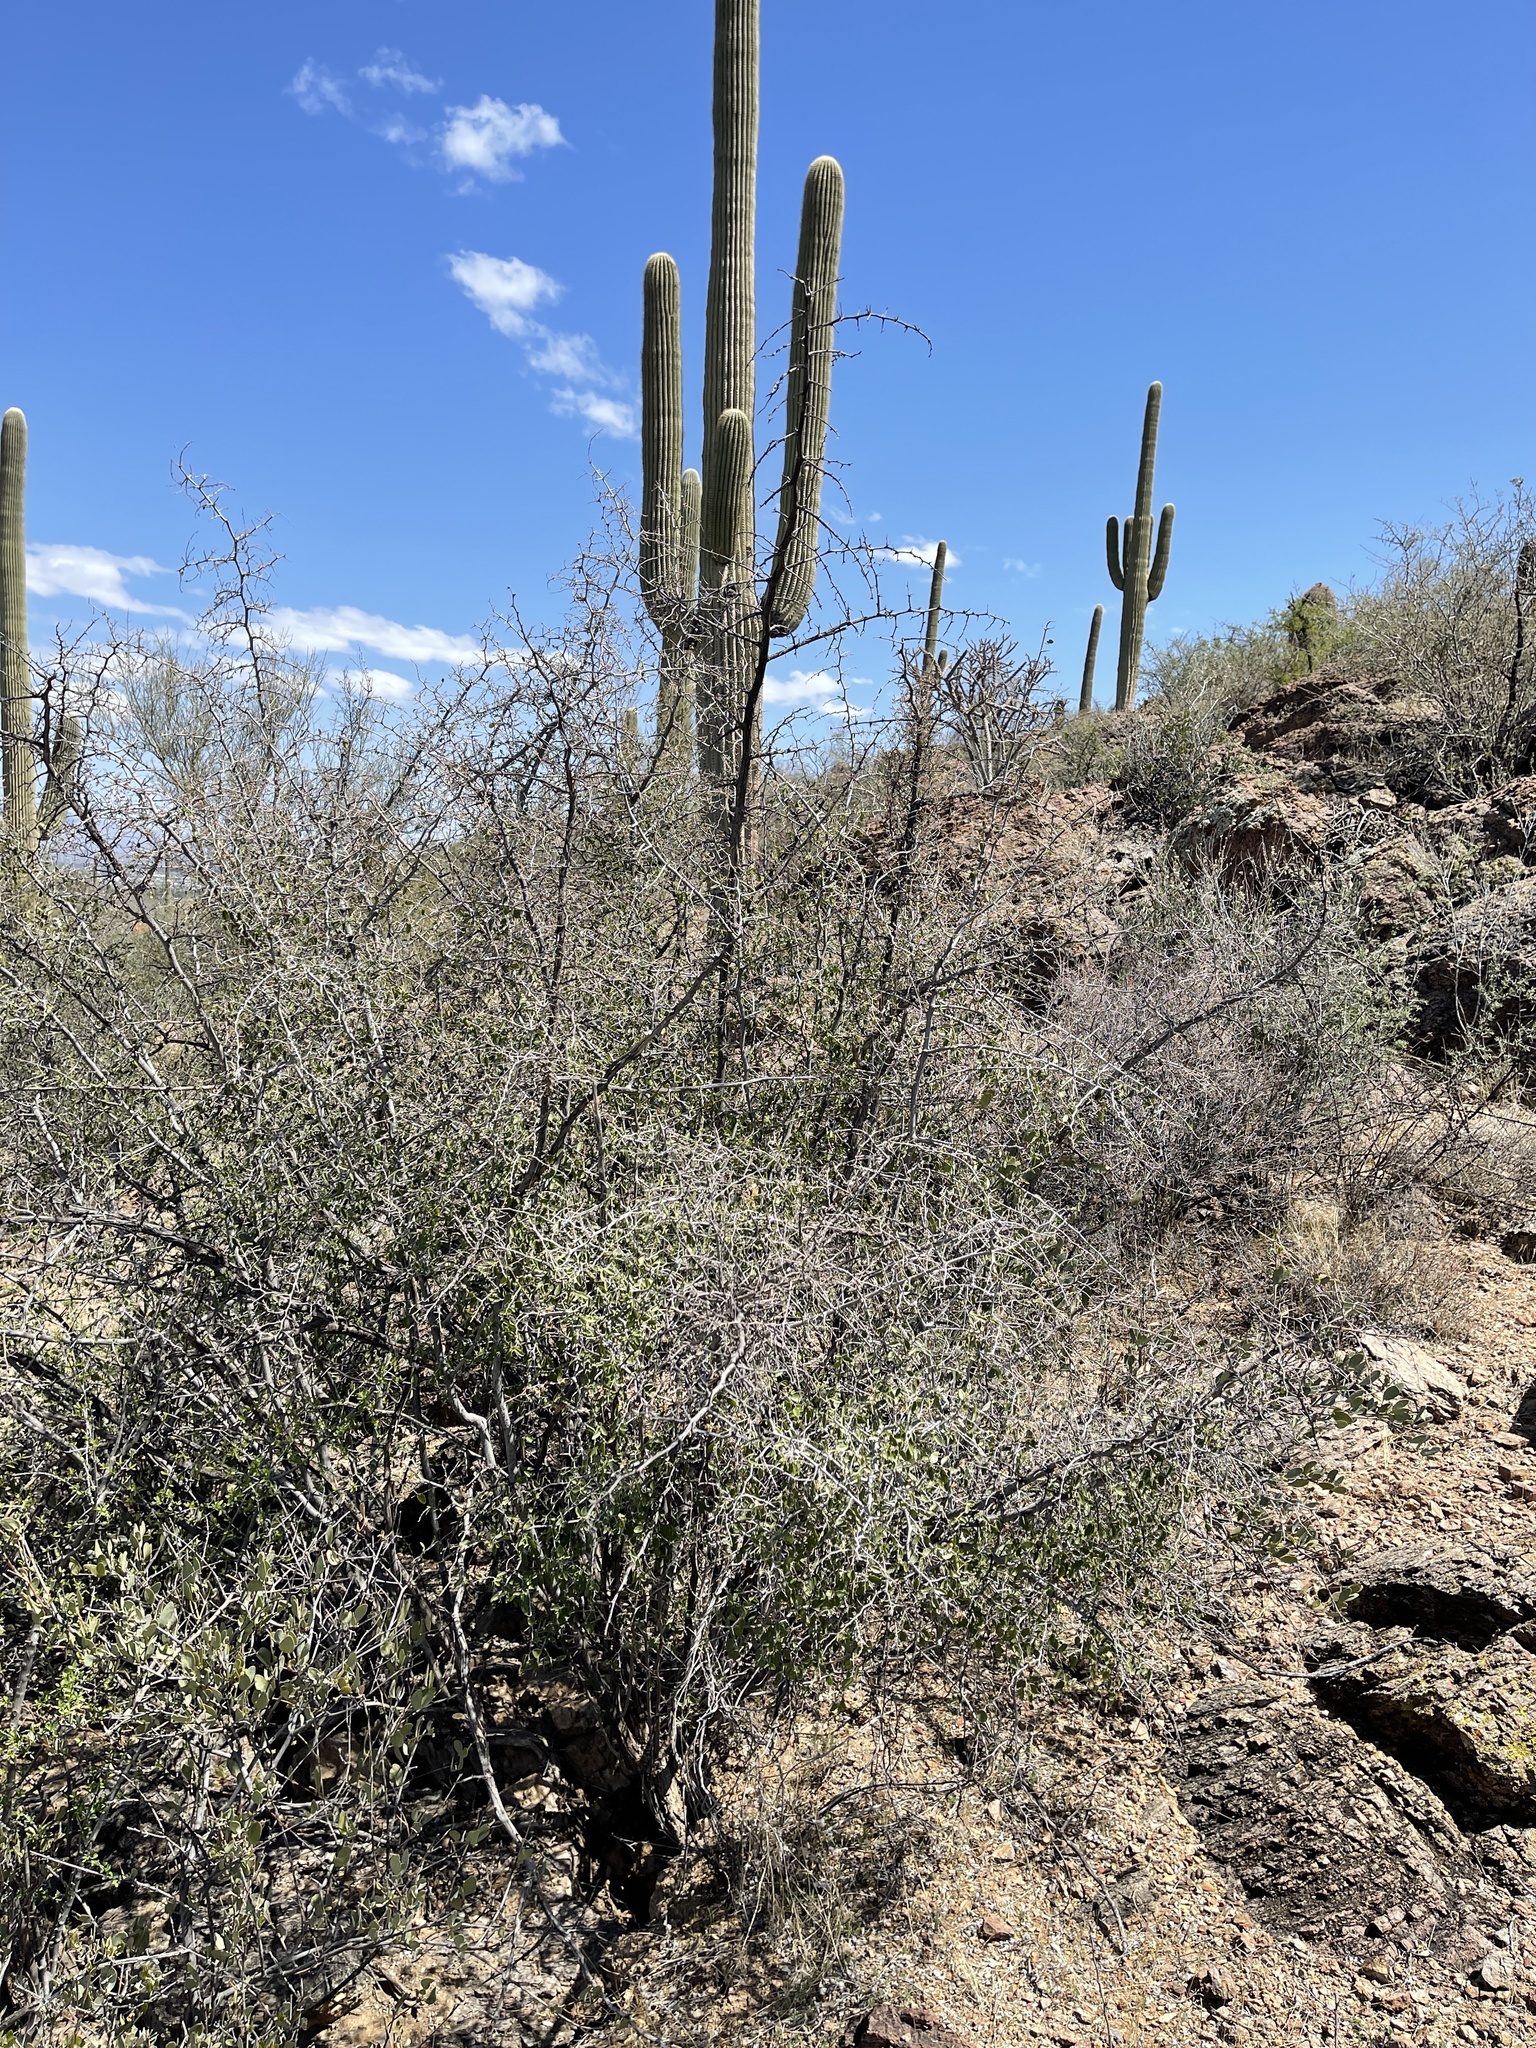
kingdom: Plantae
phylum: Tracheophyta
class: Magnoliopsida
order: Rosales
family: Cannabaceae
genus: Celtis
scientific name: Celtis pallida
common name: Desert hackberry
